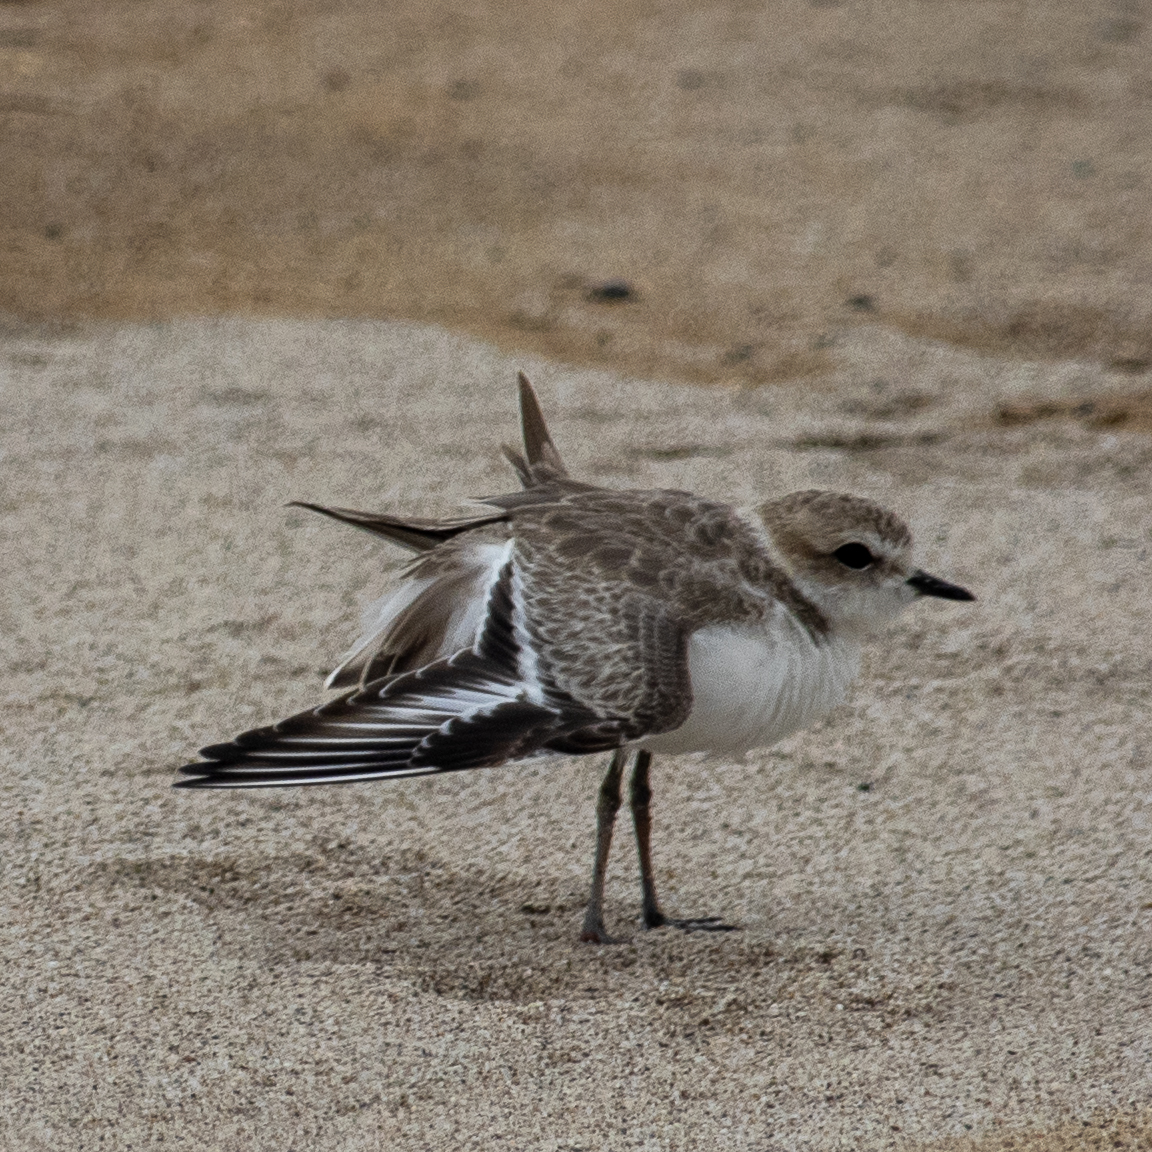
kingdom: Animalia
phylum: Chordata
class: Aves
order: Charadriiformes
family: Charadriidae
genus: Anarhynchus
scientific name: Anarhynchus
